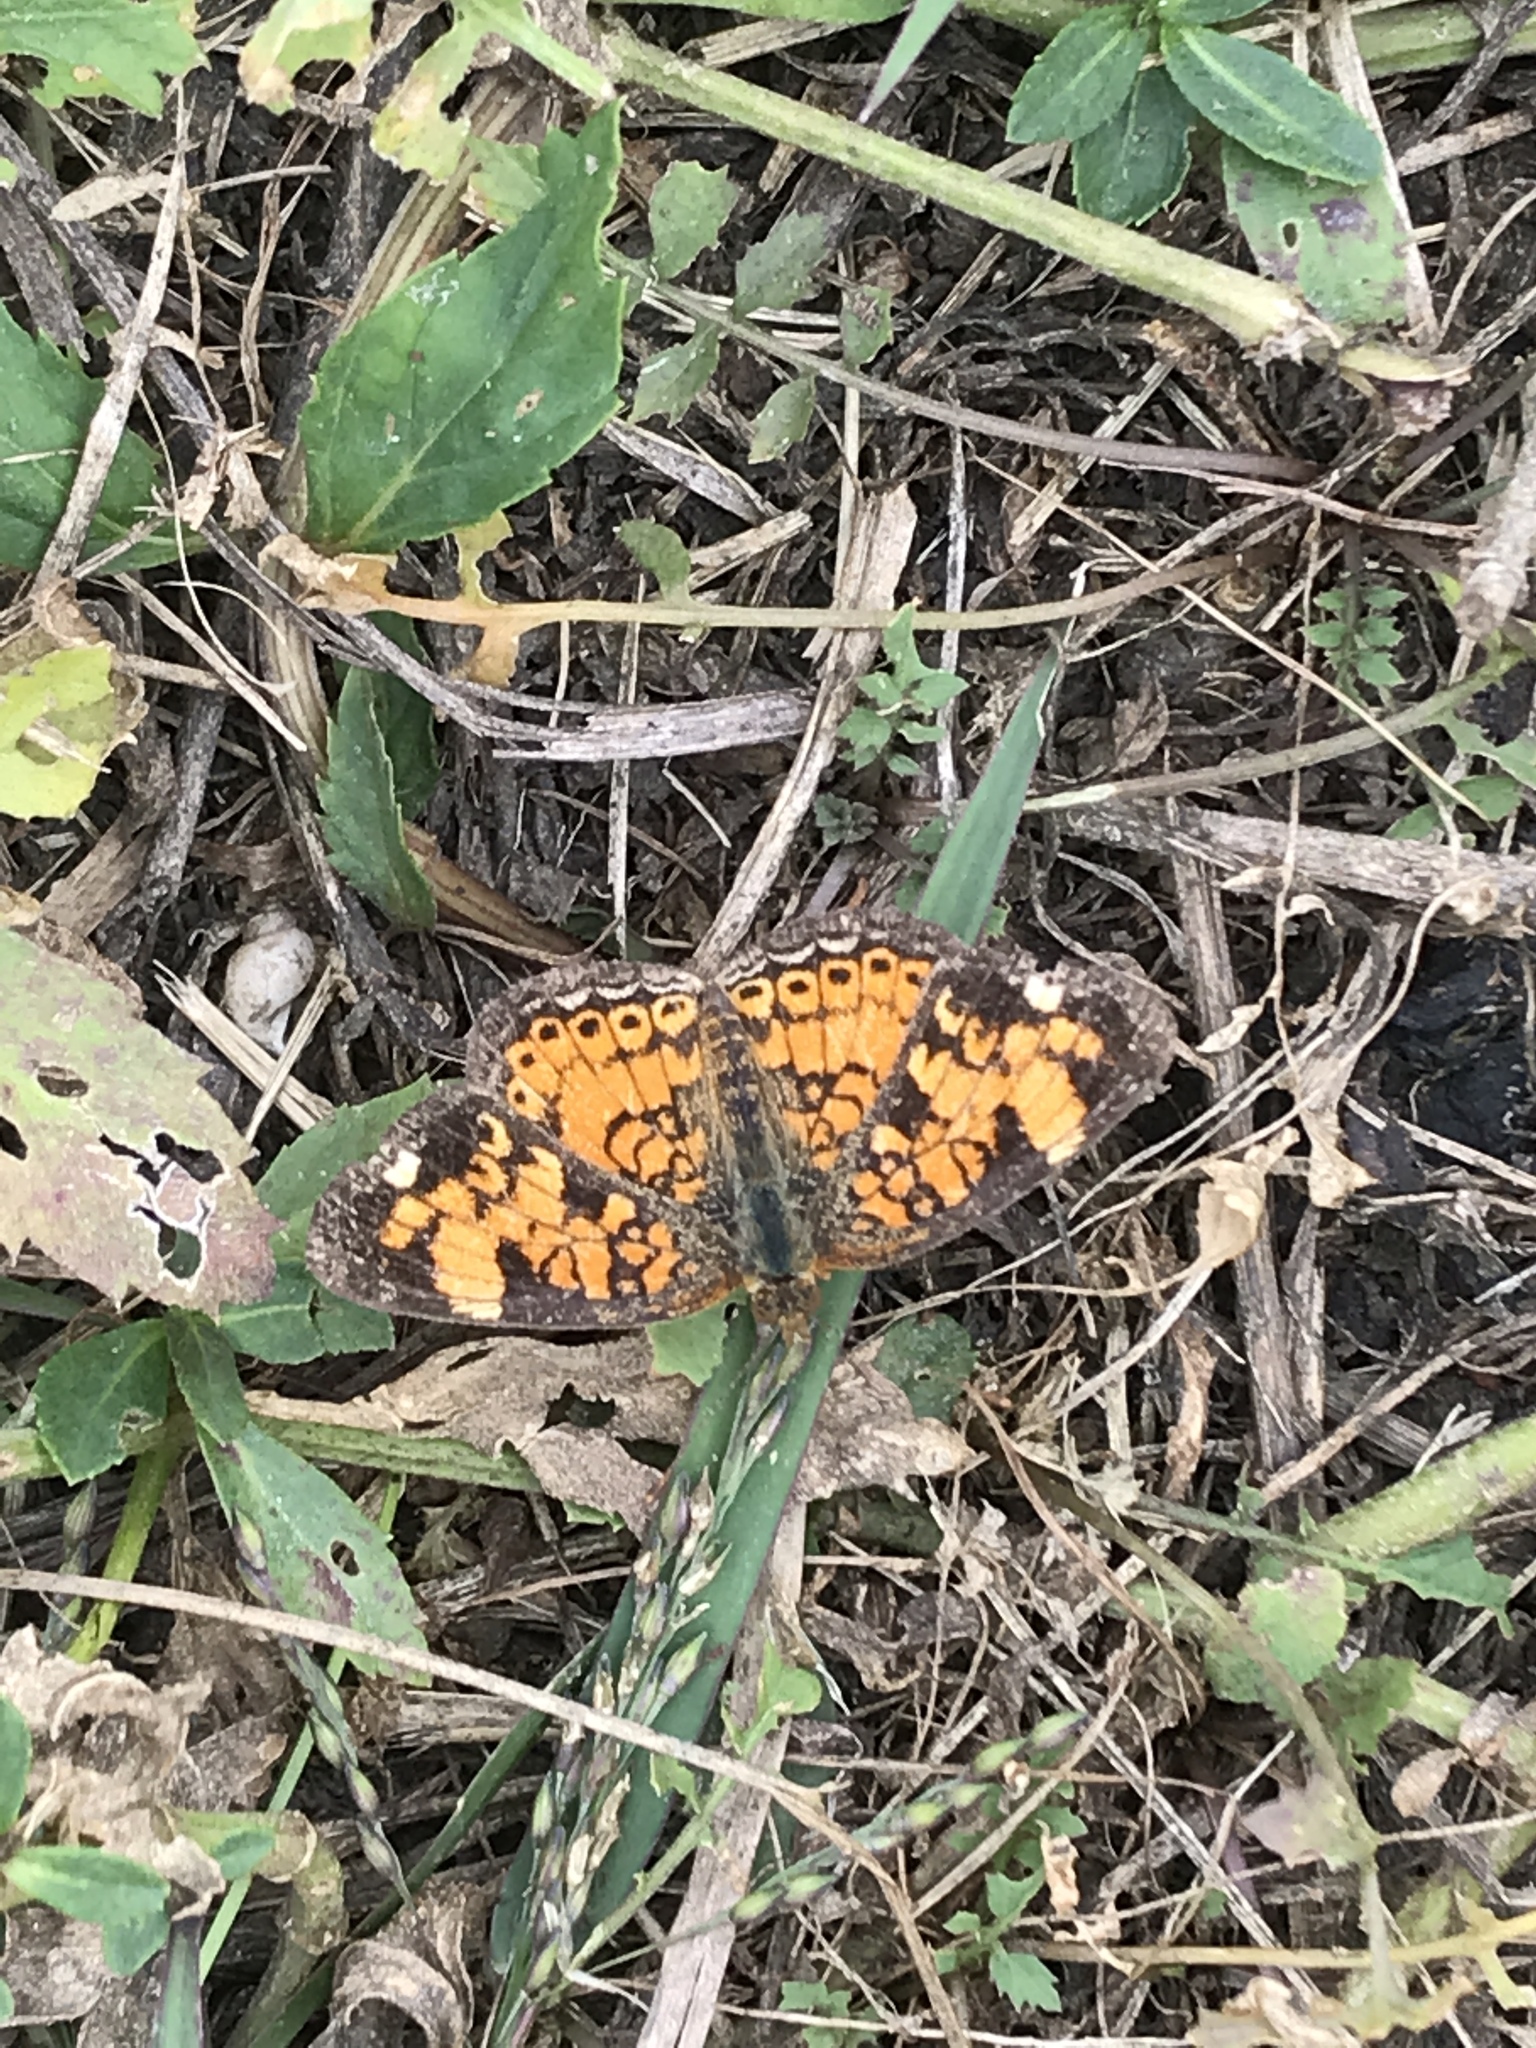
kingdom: Animalia
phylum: Arthropoda
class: Insecta
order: Lepidoptera
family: Nymphalidae
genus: Phyciodes
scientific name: Phyciodes tharos
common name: Pearl crescent
